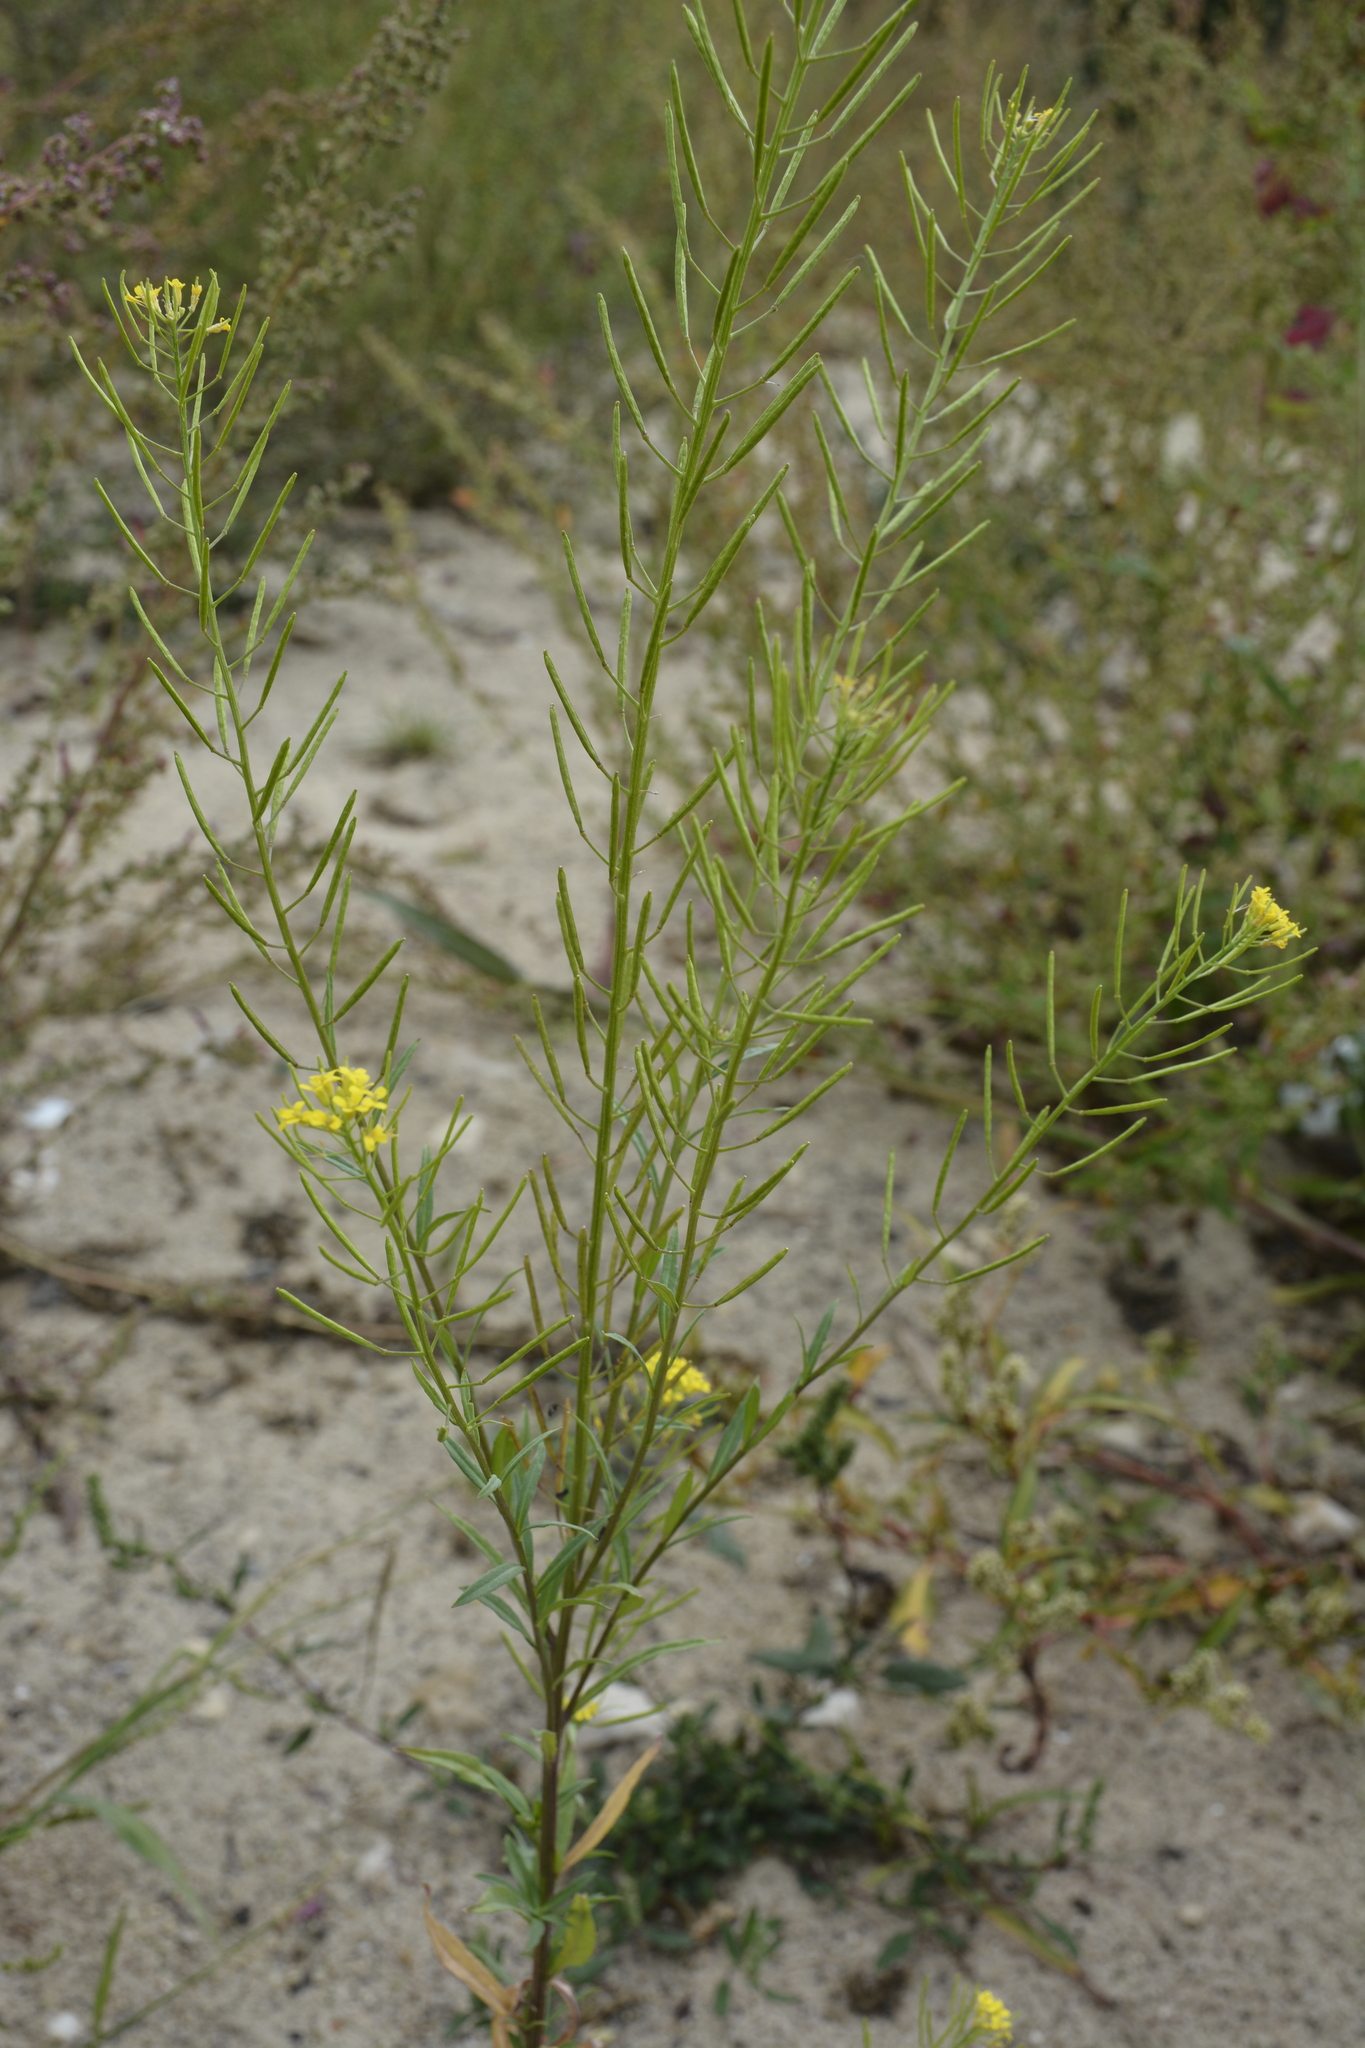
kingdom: Plantae
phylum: Tracheophyta
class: Magnoliopsida
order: Brassicales
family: Brassicaceae
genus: Erysimum
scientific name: Erysimum cheiranthoides
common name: Treacle mustard
